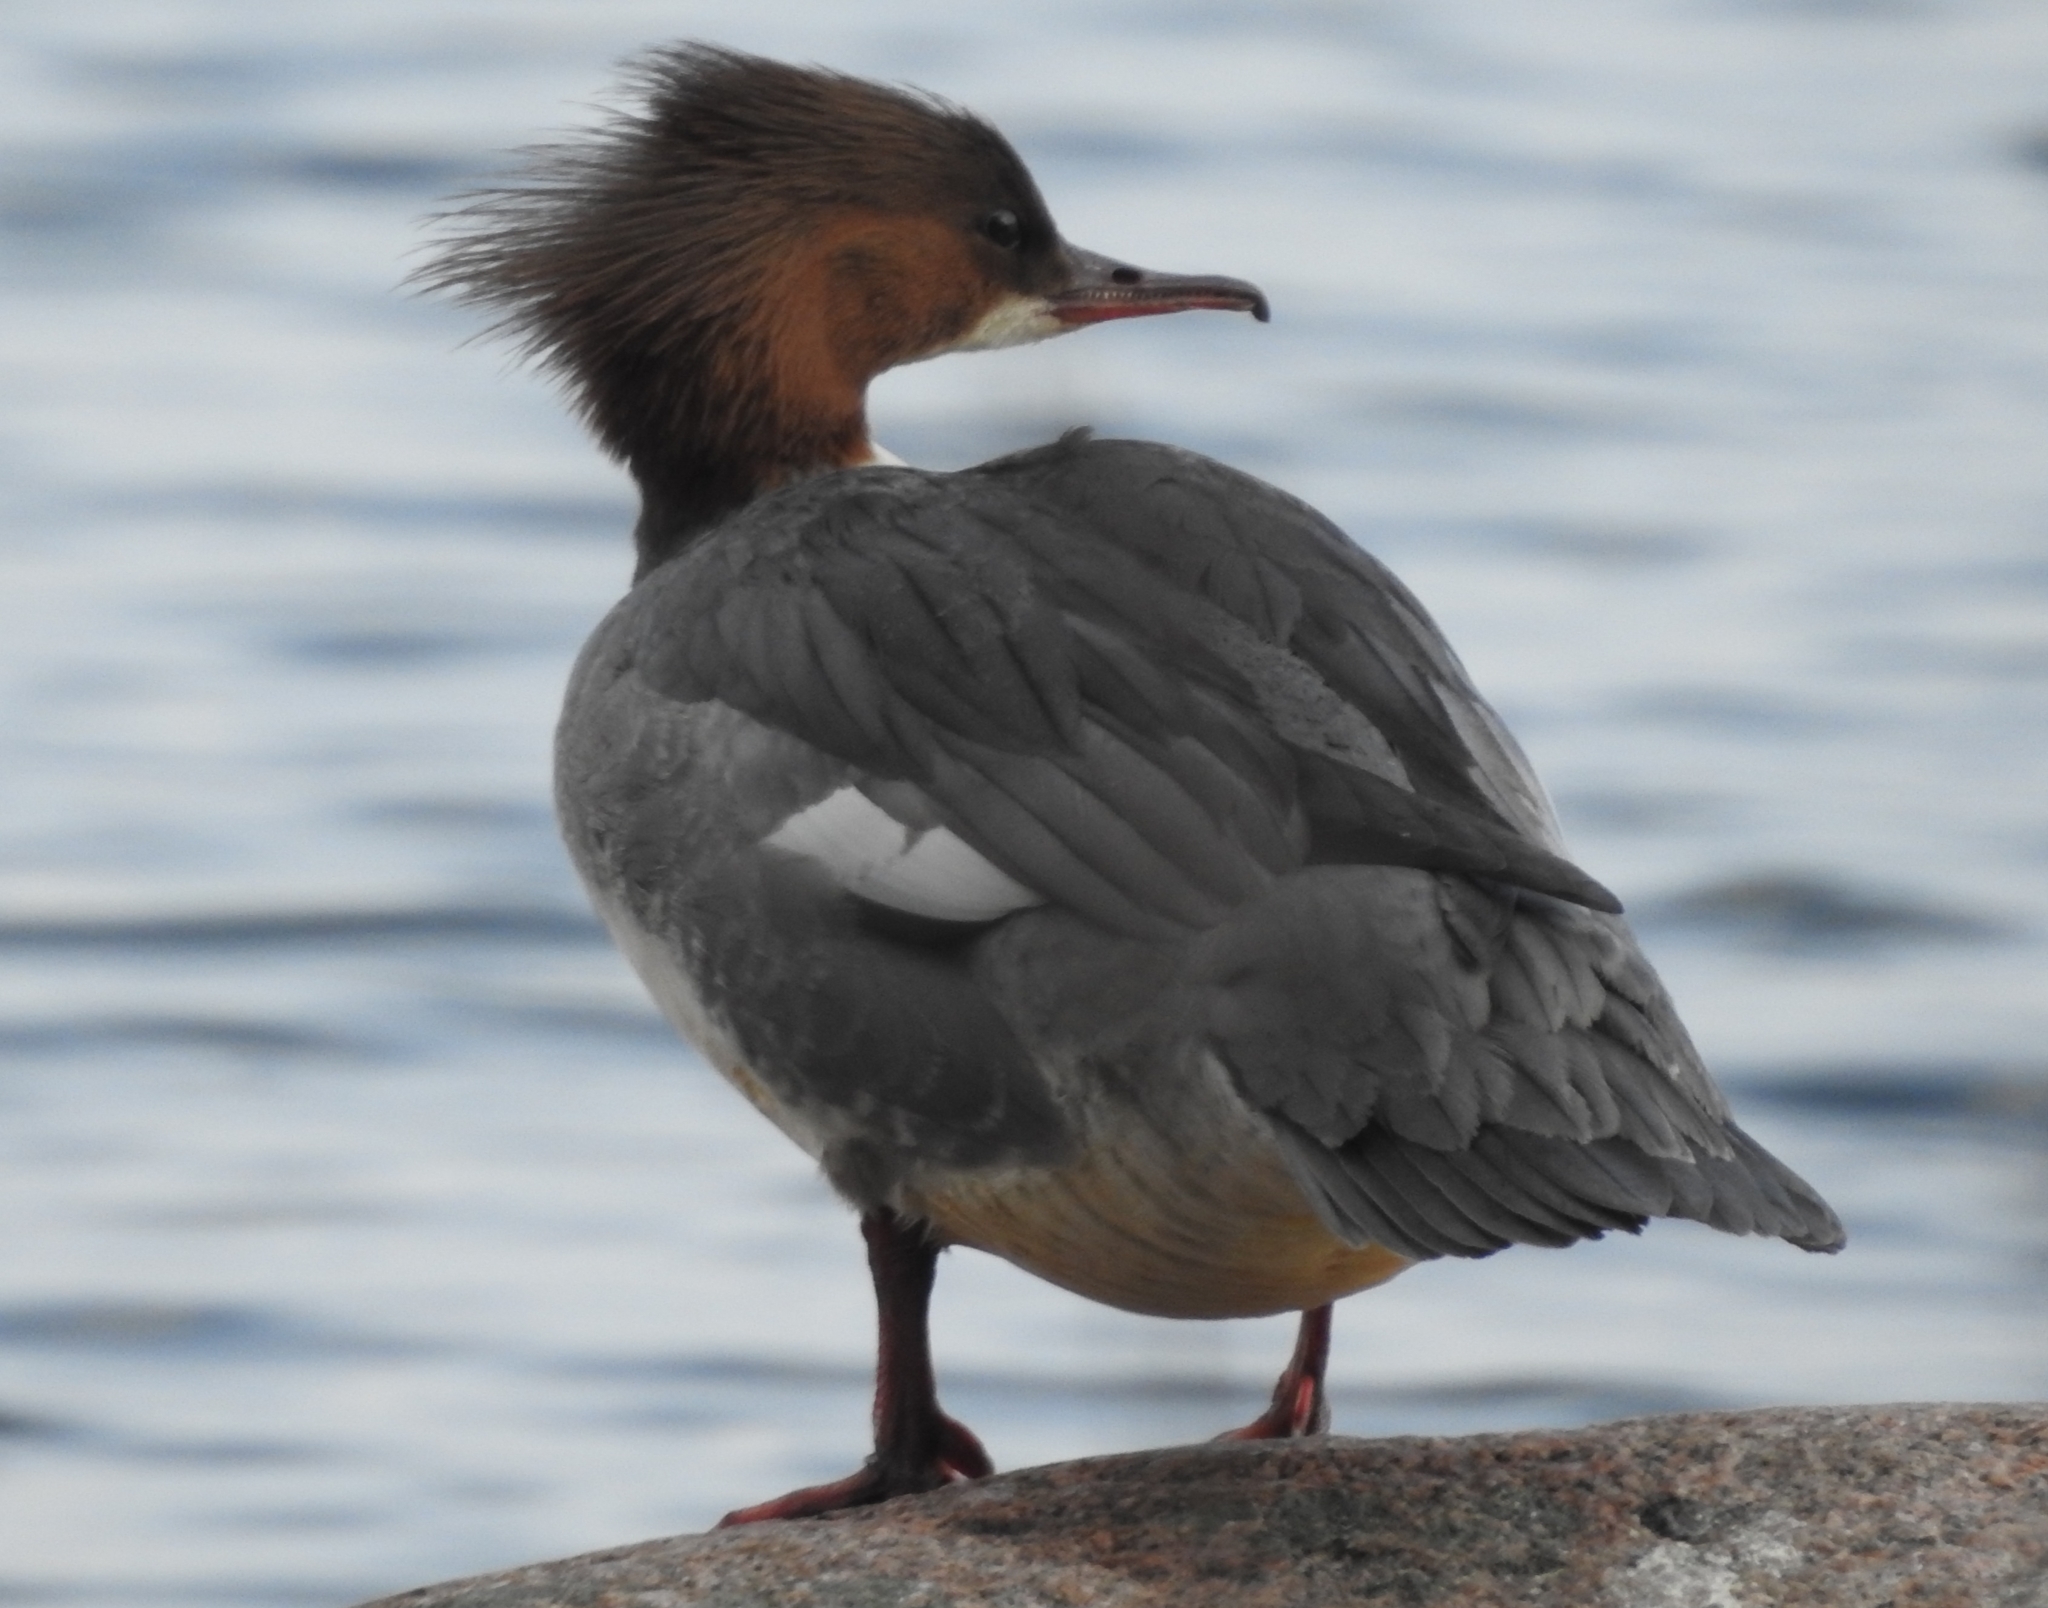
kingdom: Animalia
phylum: Chordata
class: Aves
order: Anseriformes
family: Anatidae
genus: Mergus
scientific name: Mergus merganser
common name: Common merganser
